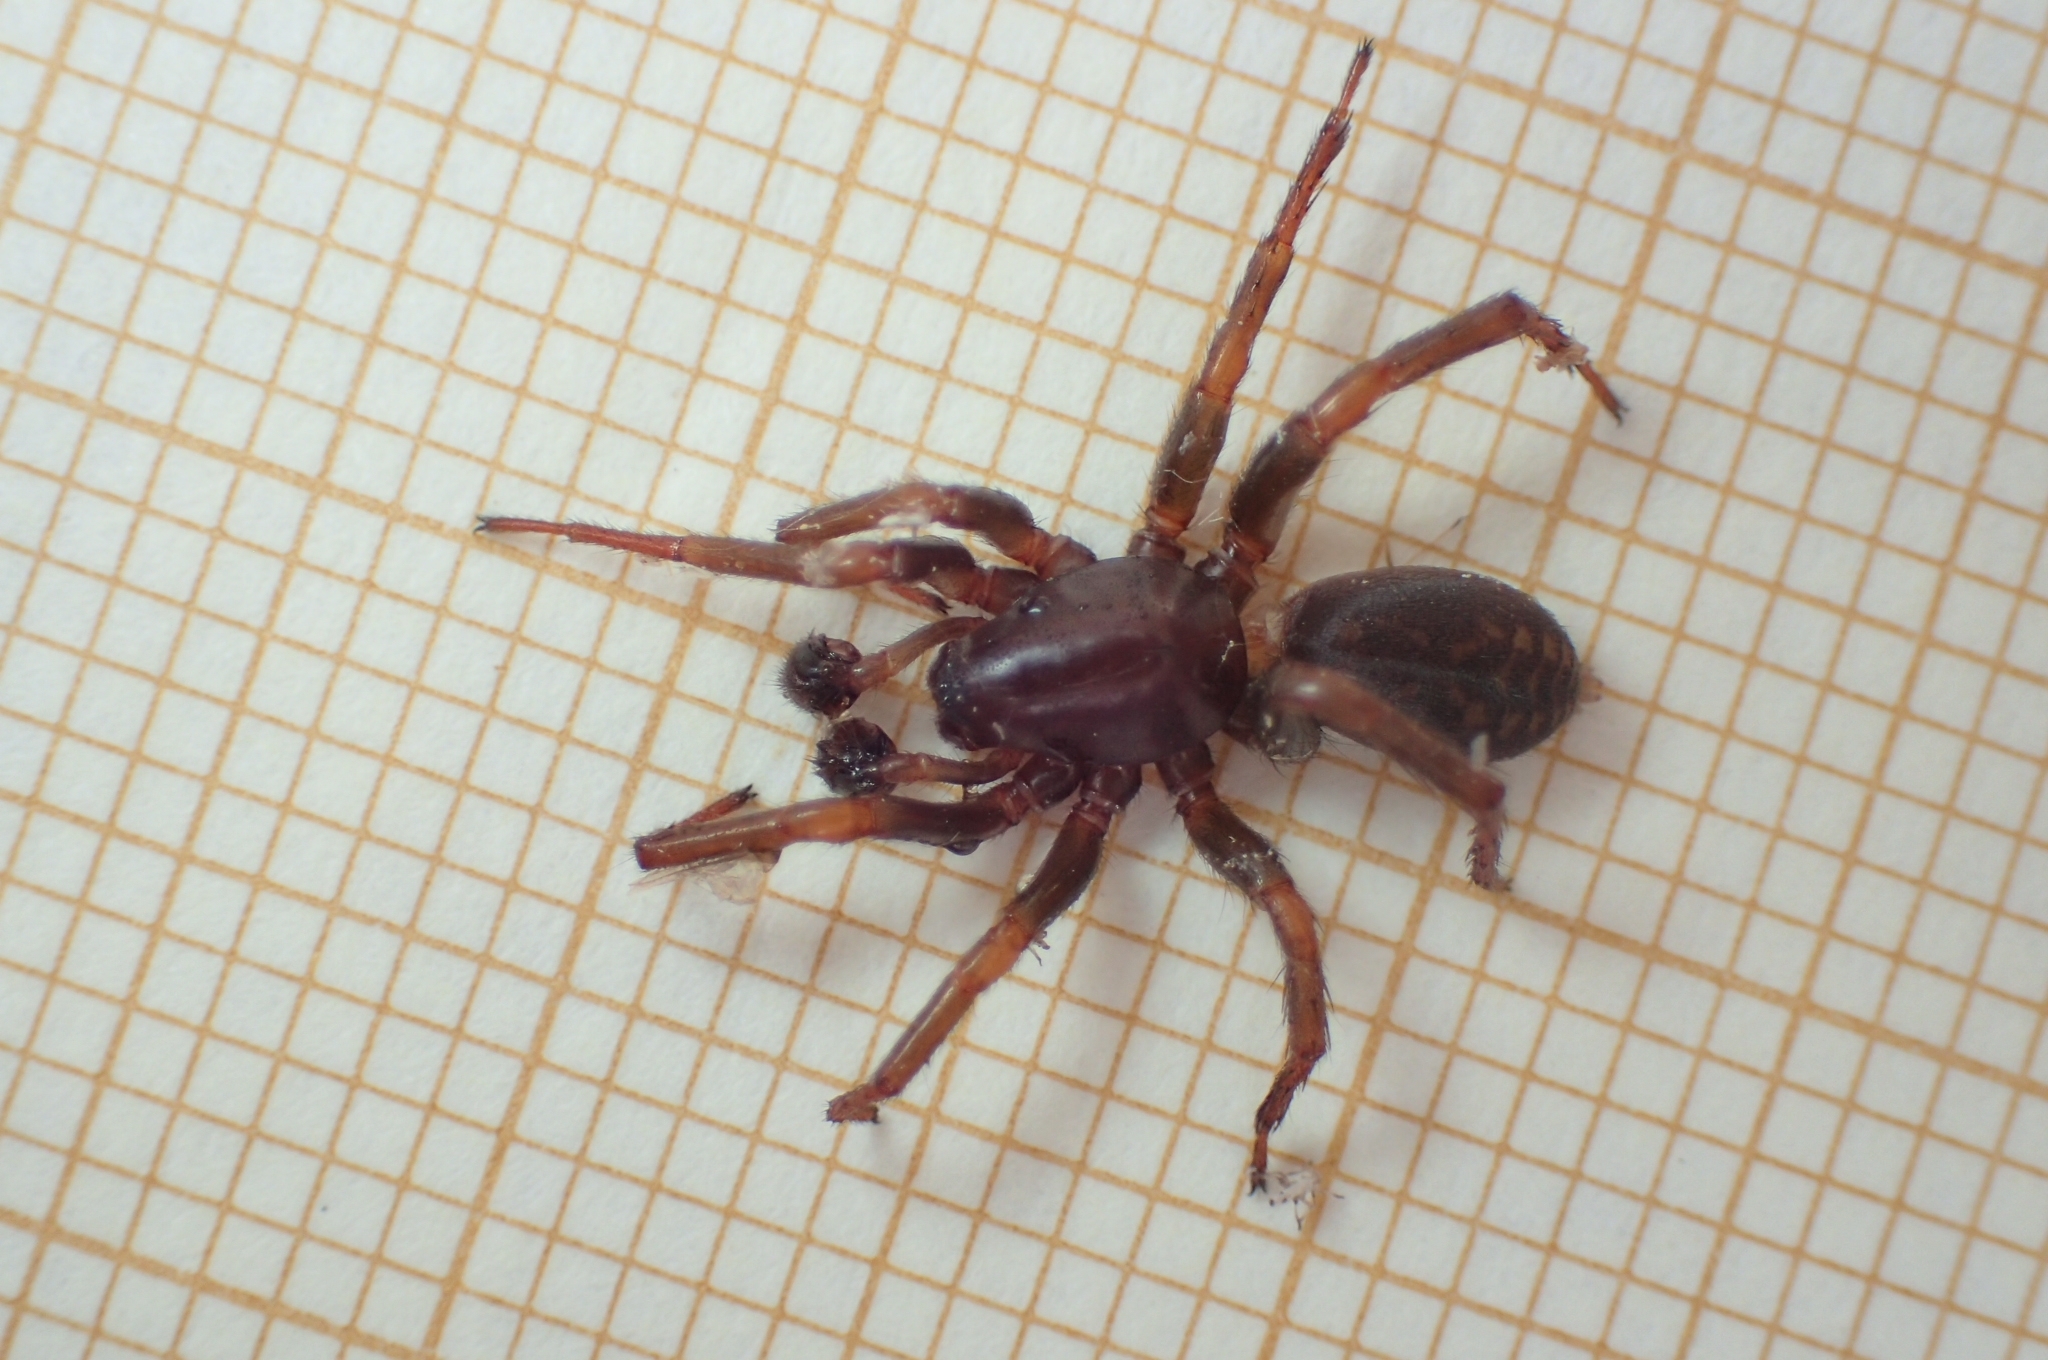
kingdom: Animalia
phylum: Arthropoda
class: Arachnida
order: Araneae
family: Zodariidae
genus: Selamia
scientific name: Selamia reticulata
